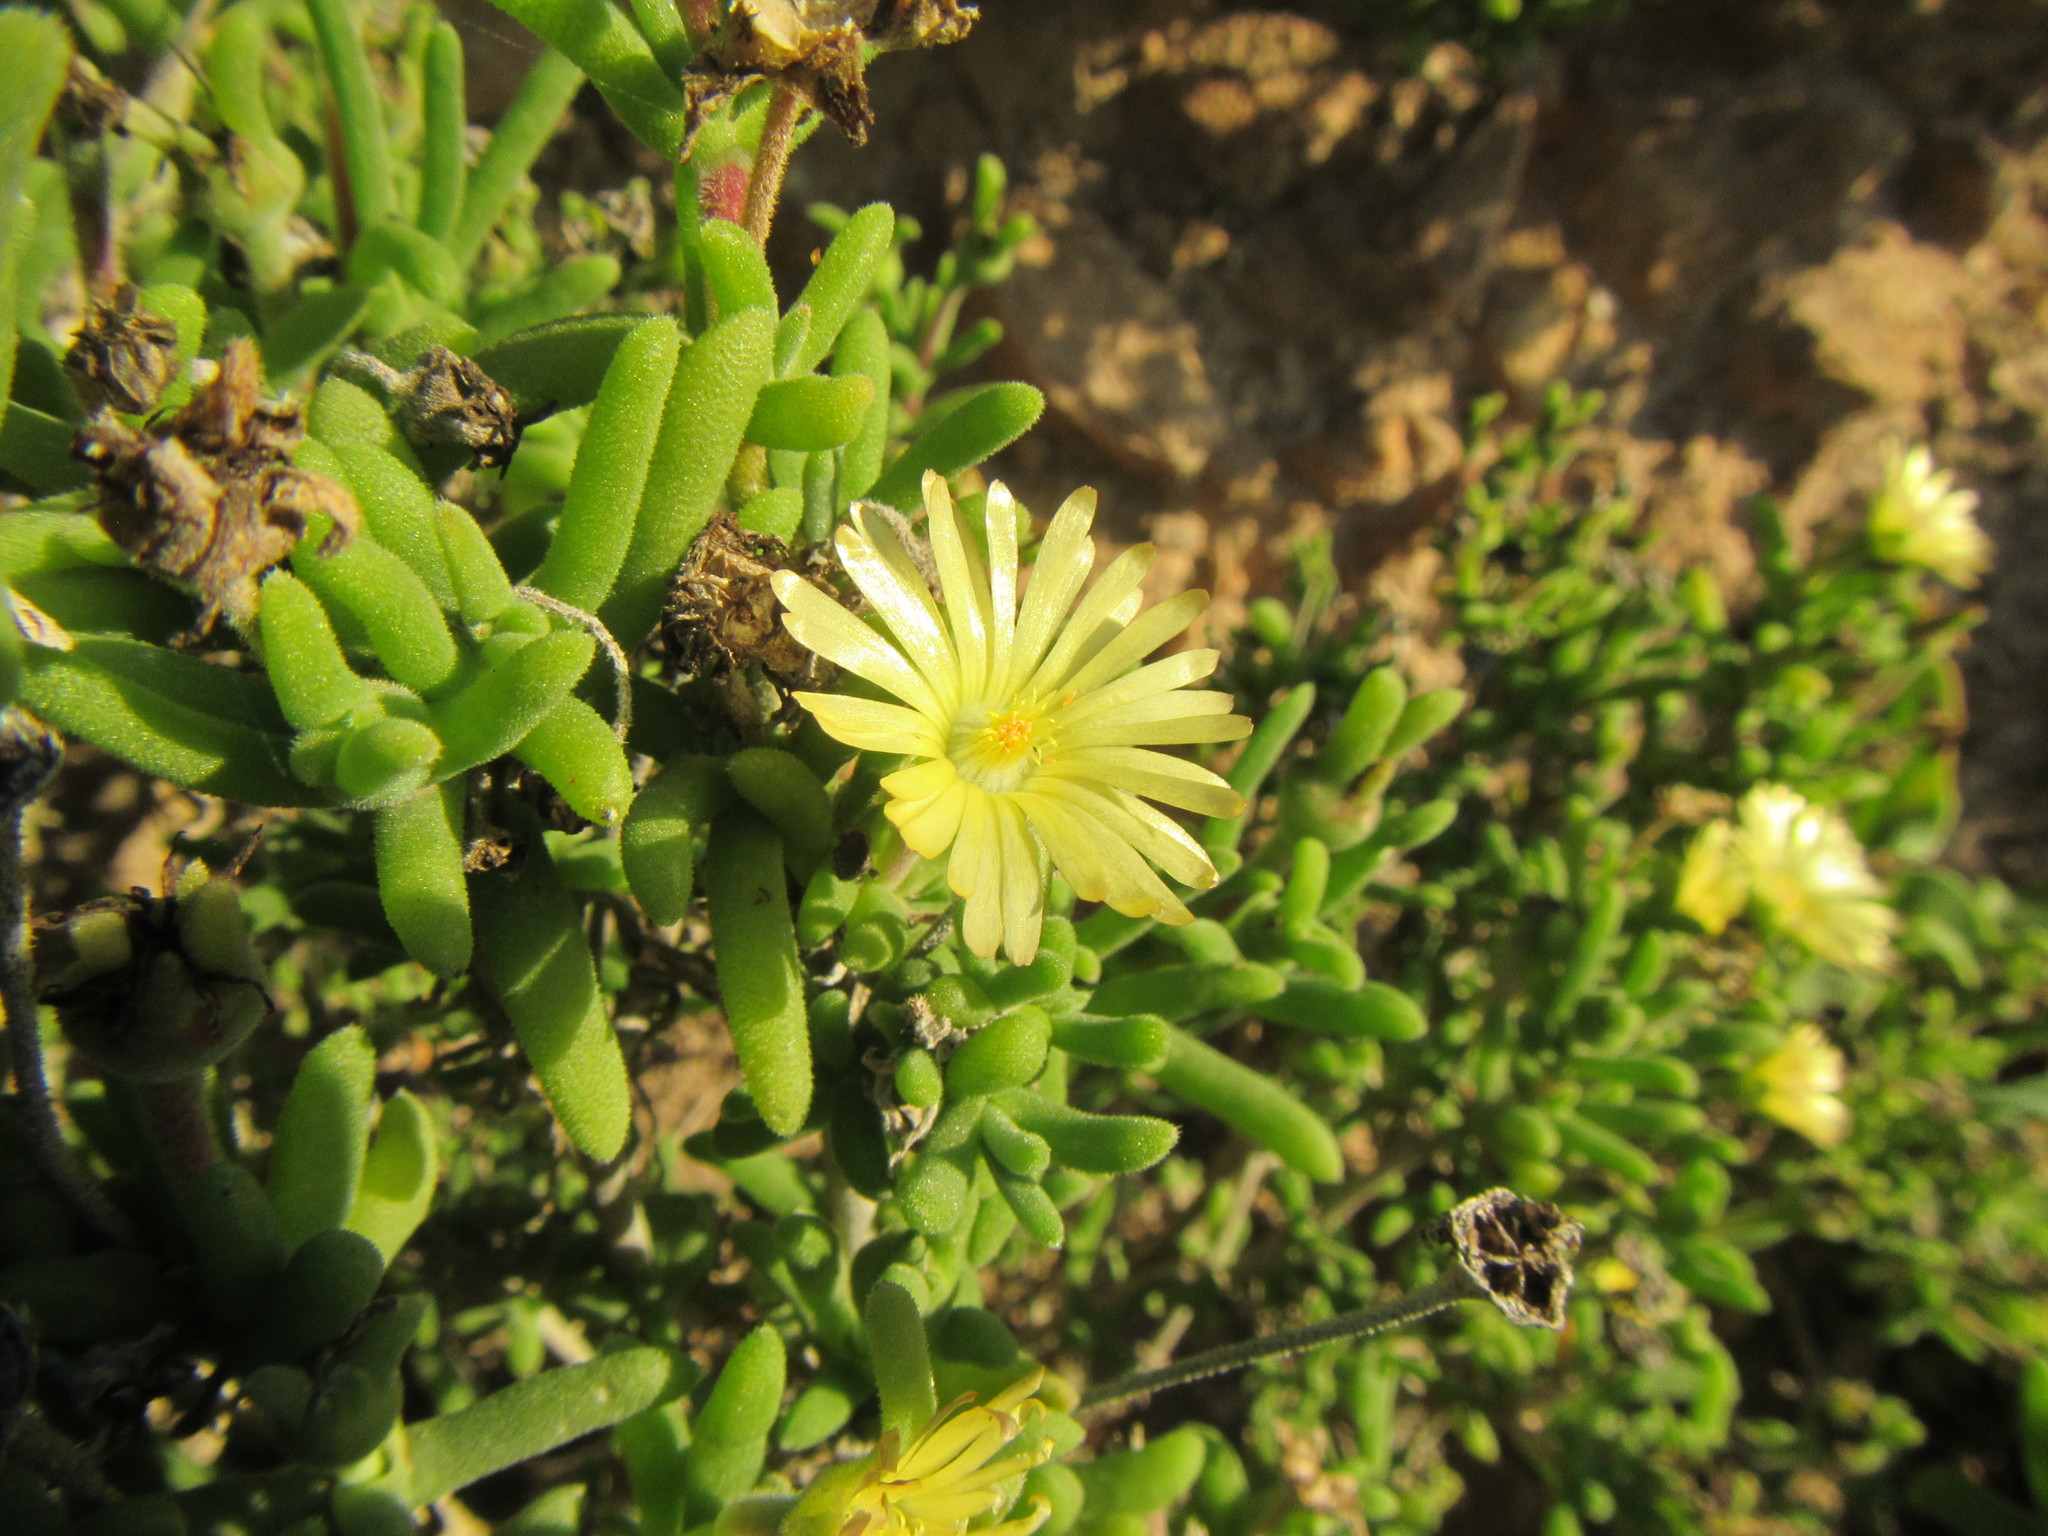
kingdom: Plantae
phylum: Tracheophyta
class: Magnoliopsida
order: Caryophyllales
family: Aizoaceae
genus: Delosperma
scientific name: Delosperma crassum
